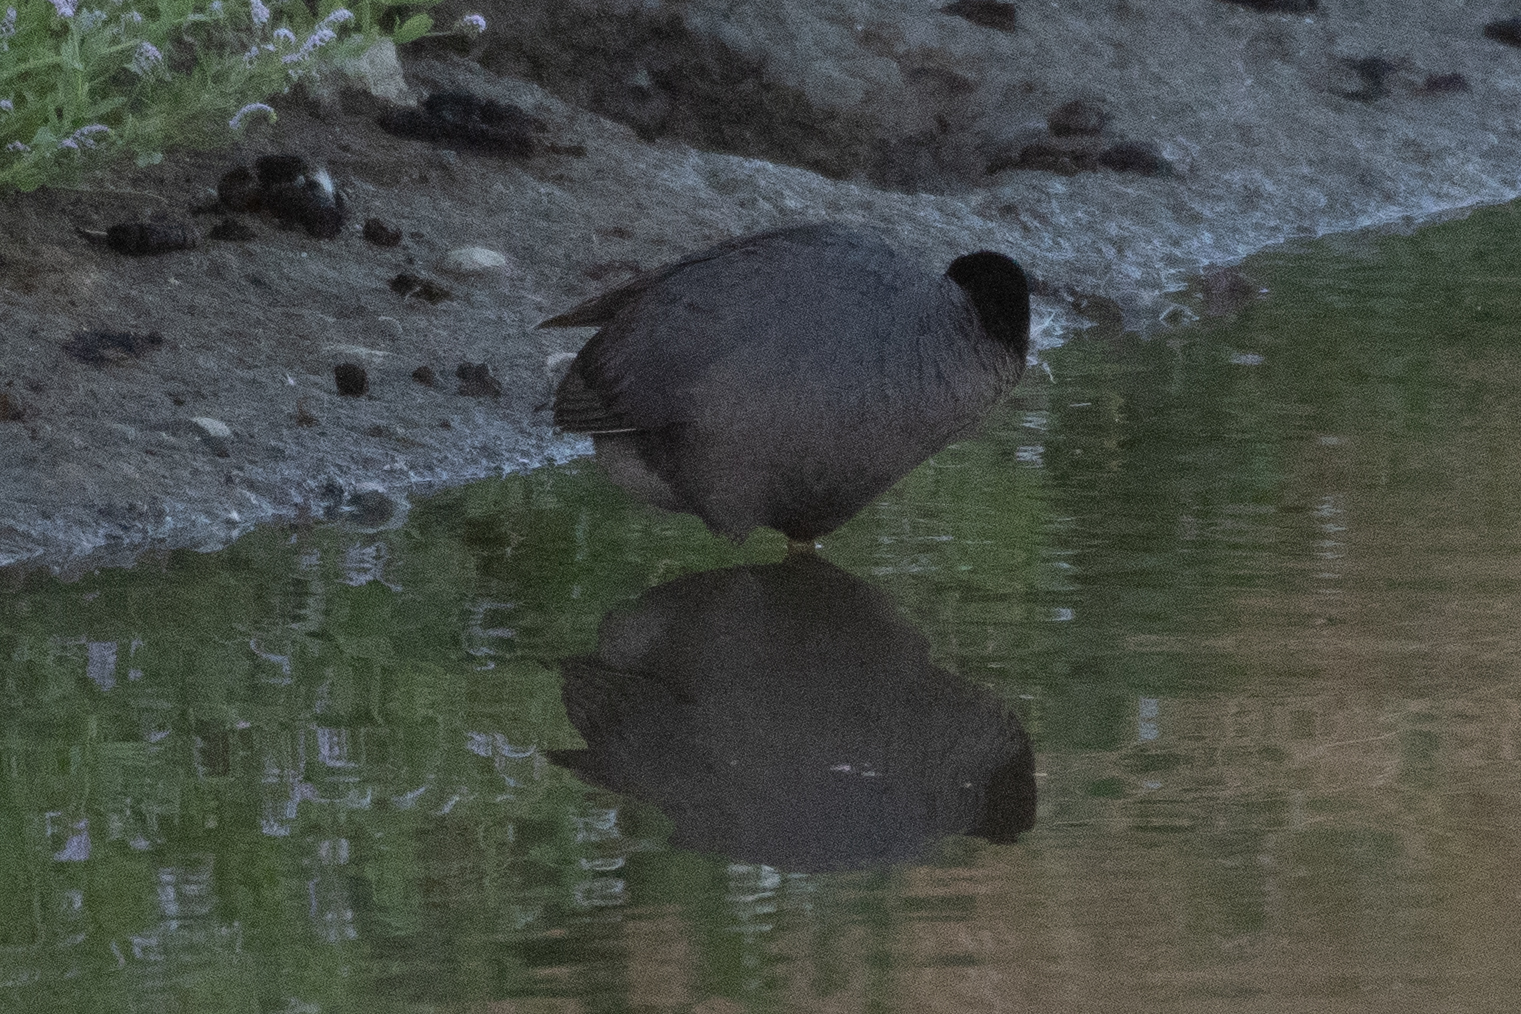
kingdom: Animalia
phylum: Chordata
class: Aves
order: Gruiformes
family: Rallidae
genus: Fulica
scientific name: Fulica americana
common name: American coot
